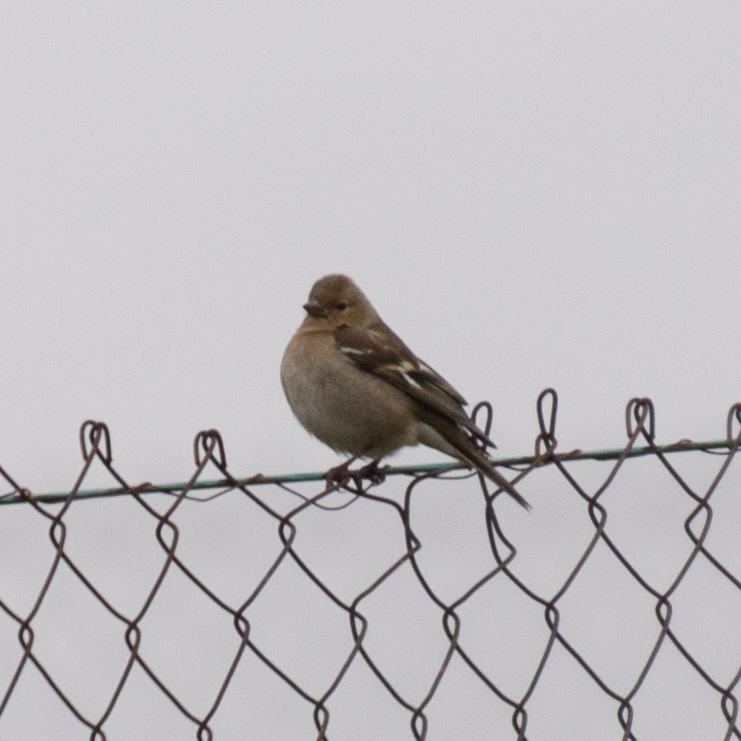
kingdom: Animalia
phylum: Chordata
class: Aves
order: Passeriformes
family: Fringillidae
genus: Fringilla
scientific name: Fringilla coelebs
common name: Common chaffinch
